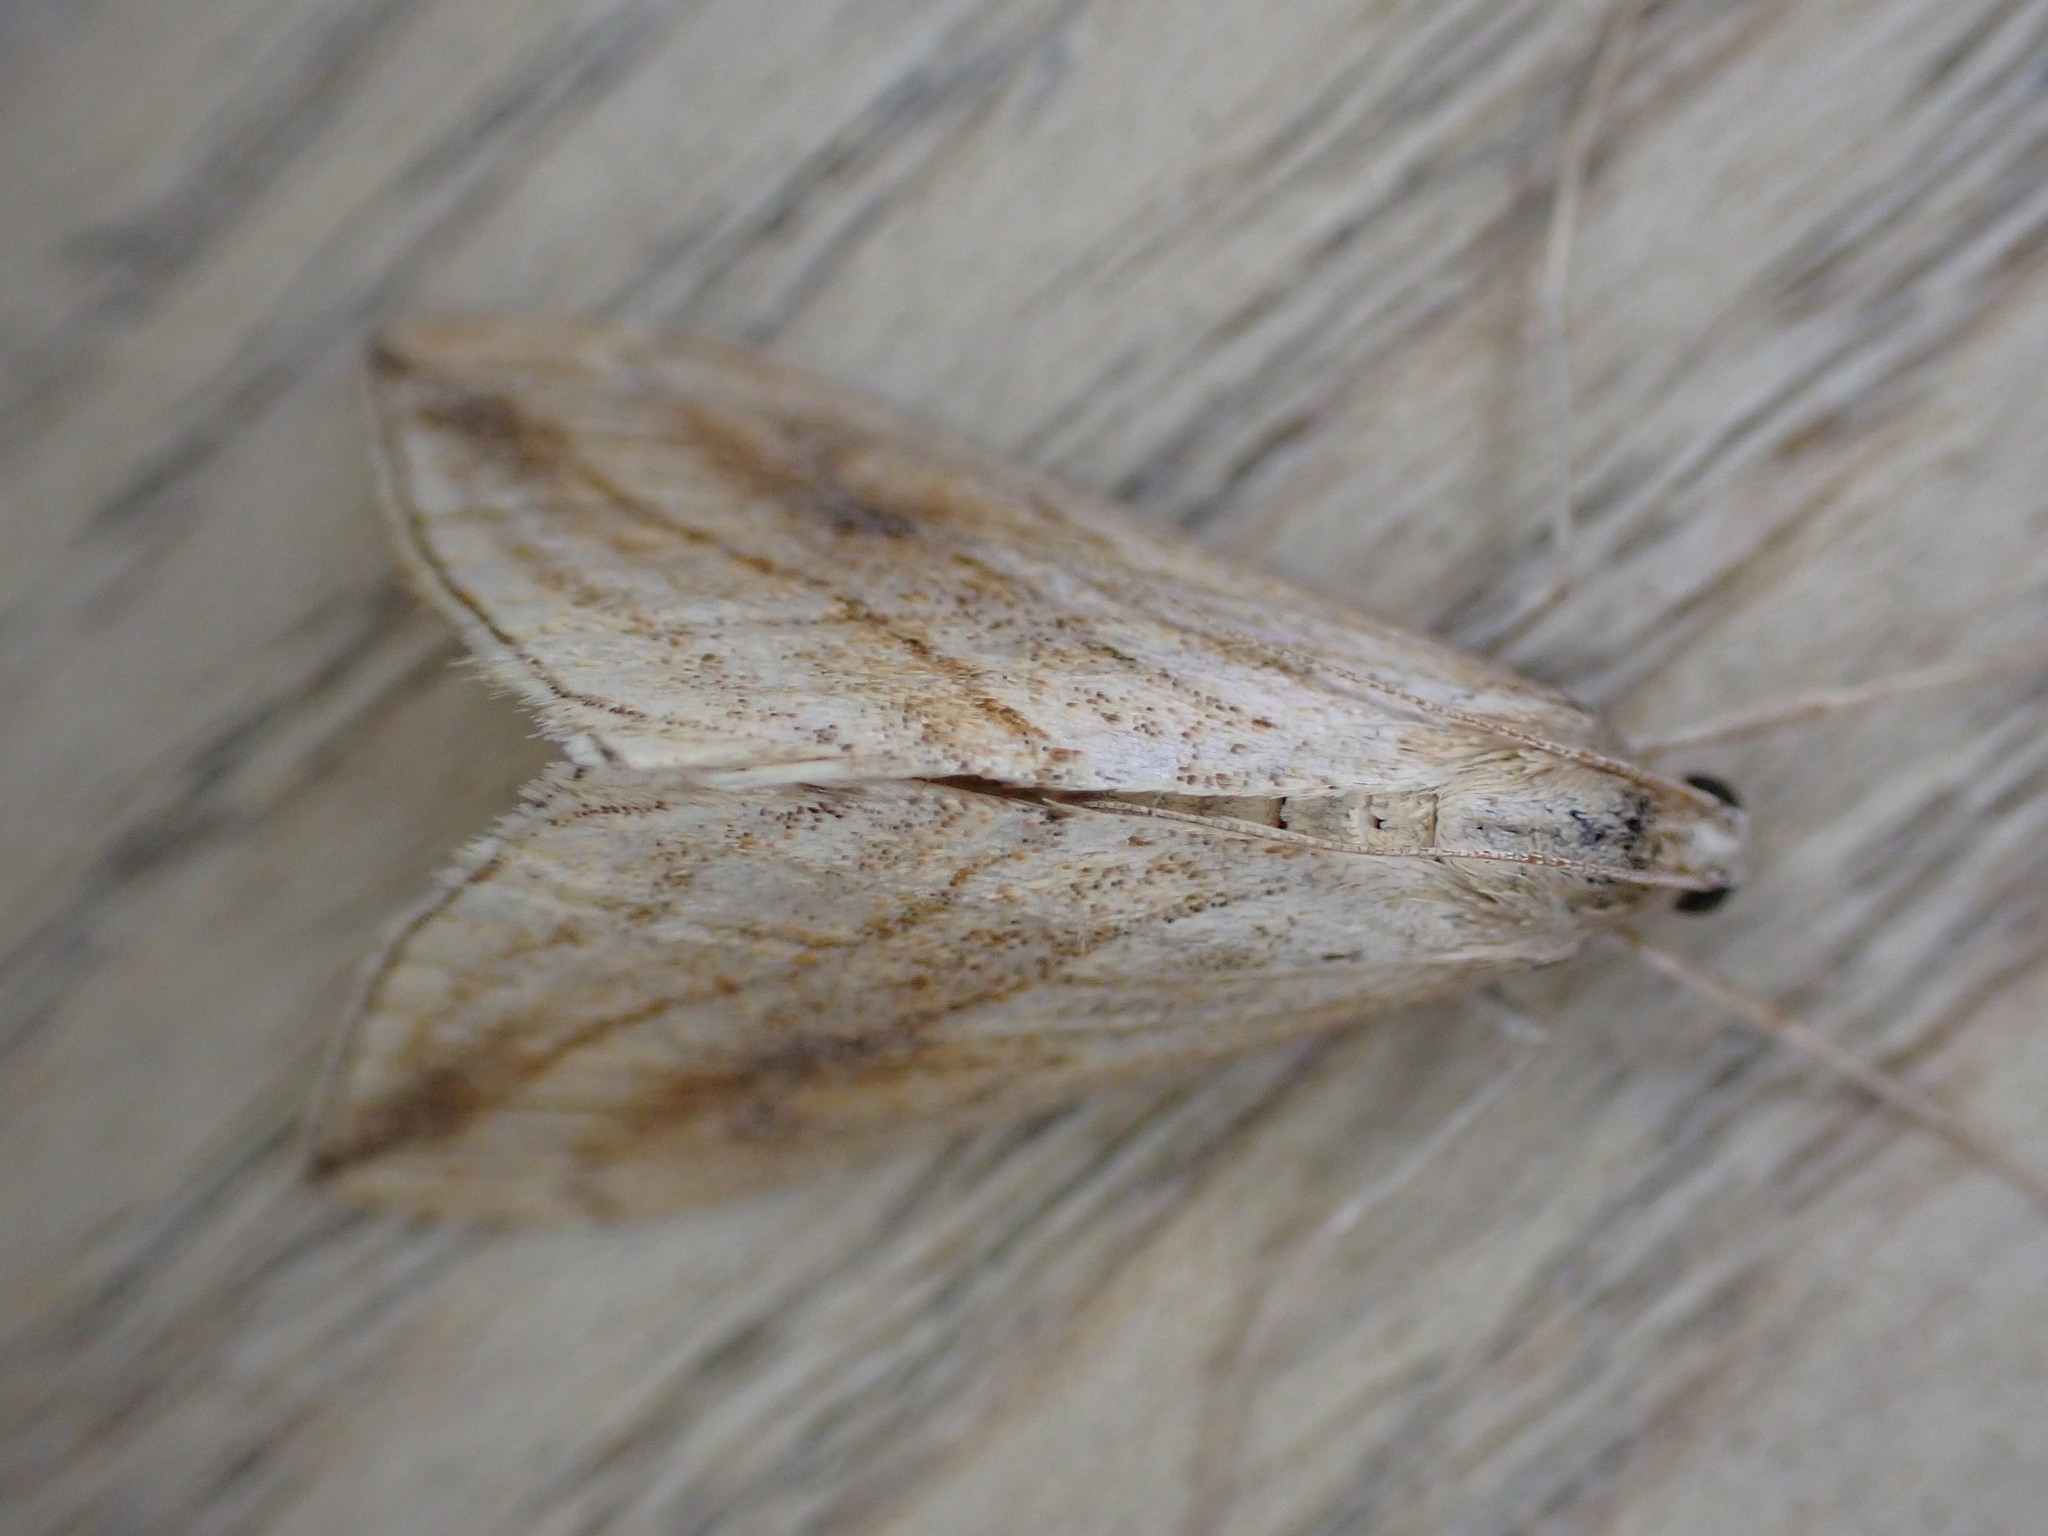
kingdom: Animalia
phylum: Arthropoda
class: Insecta
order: Lepidoptera
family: Crambidae
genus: Evergestis
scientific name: Evergestis forficalis
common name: Garden pebble
